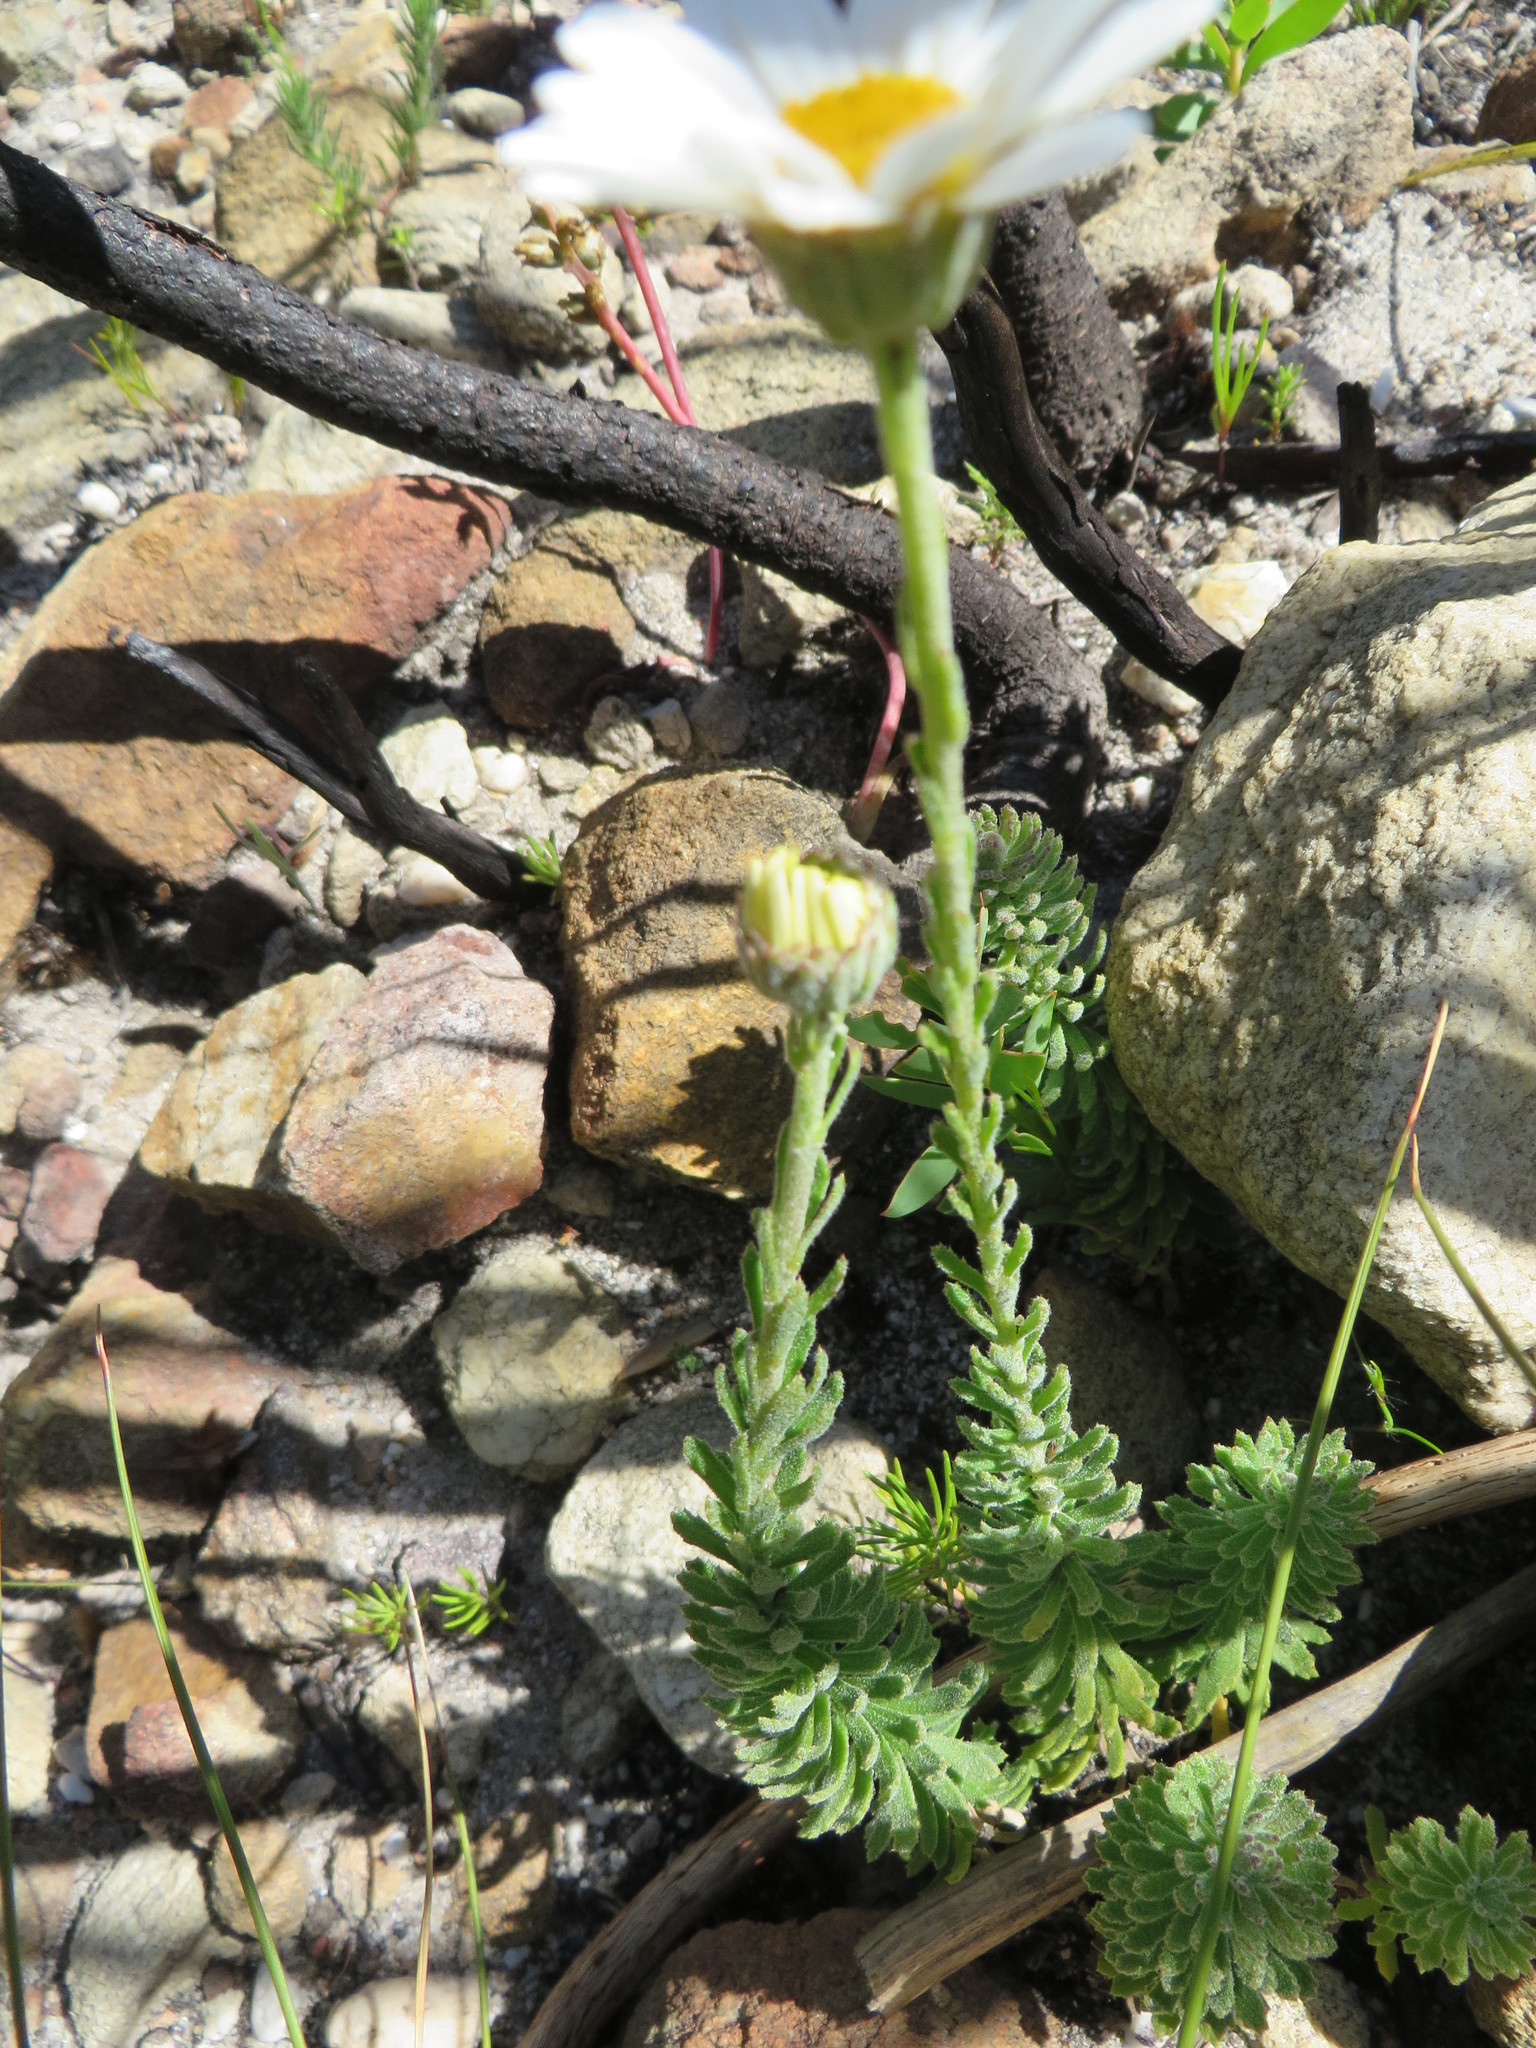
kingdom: Plantae
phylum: Tracheophyta
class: Magnoliopsida
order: Asterales
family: Asteraceae
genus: Osmitopsis
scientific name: Osmitopsis afra
